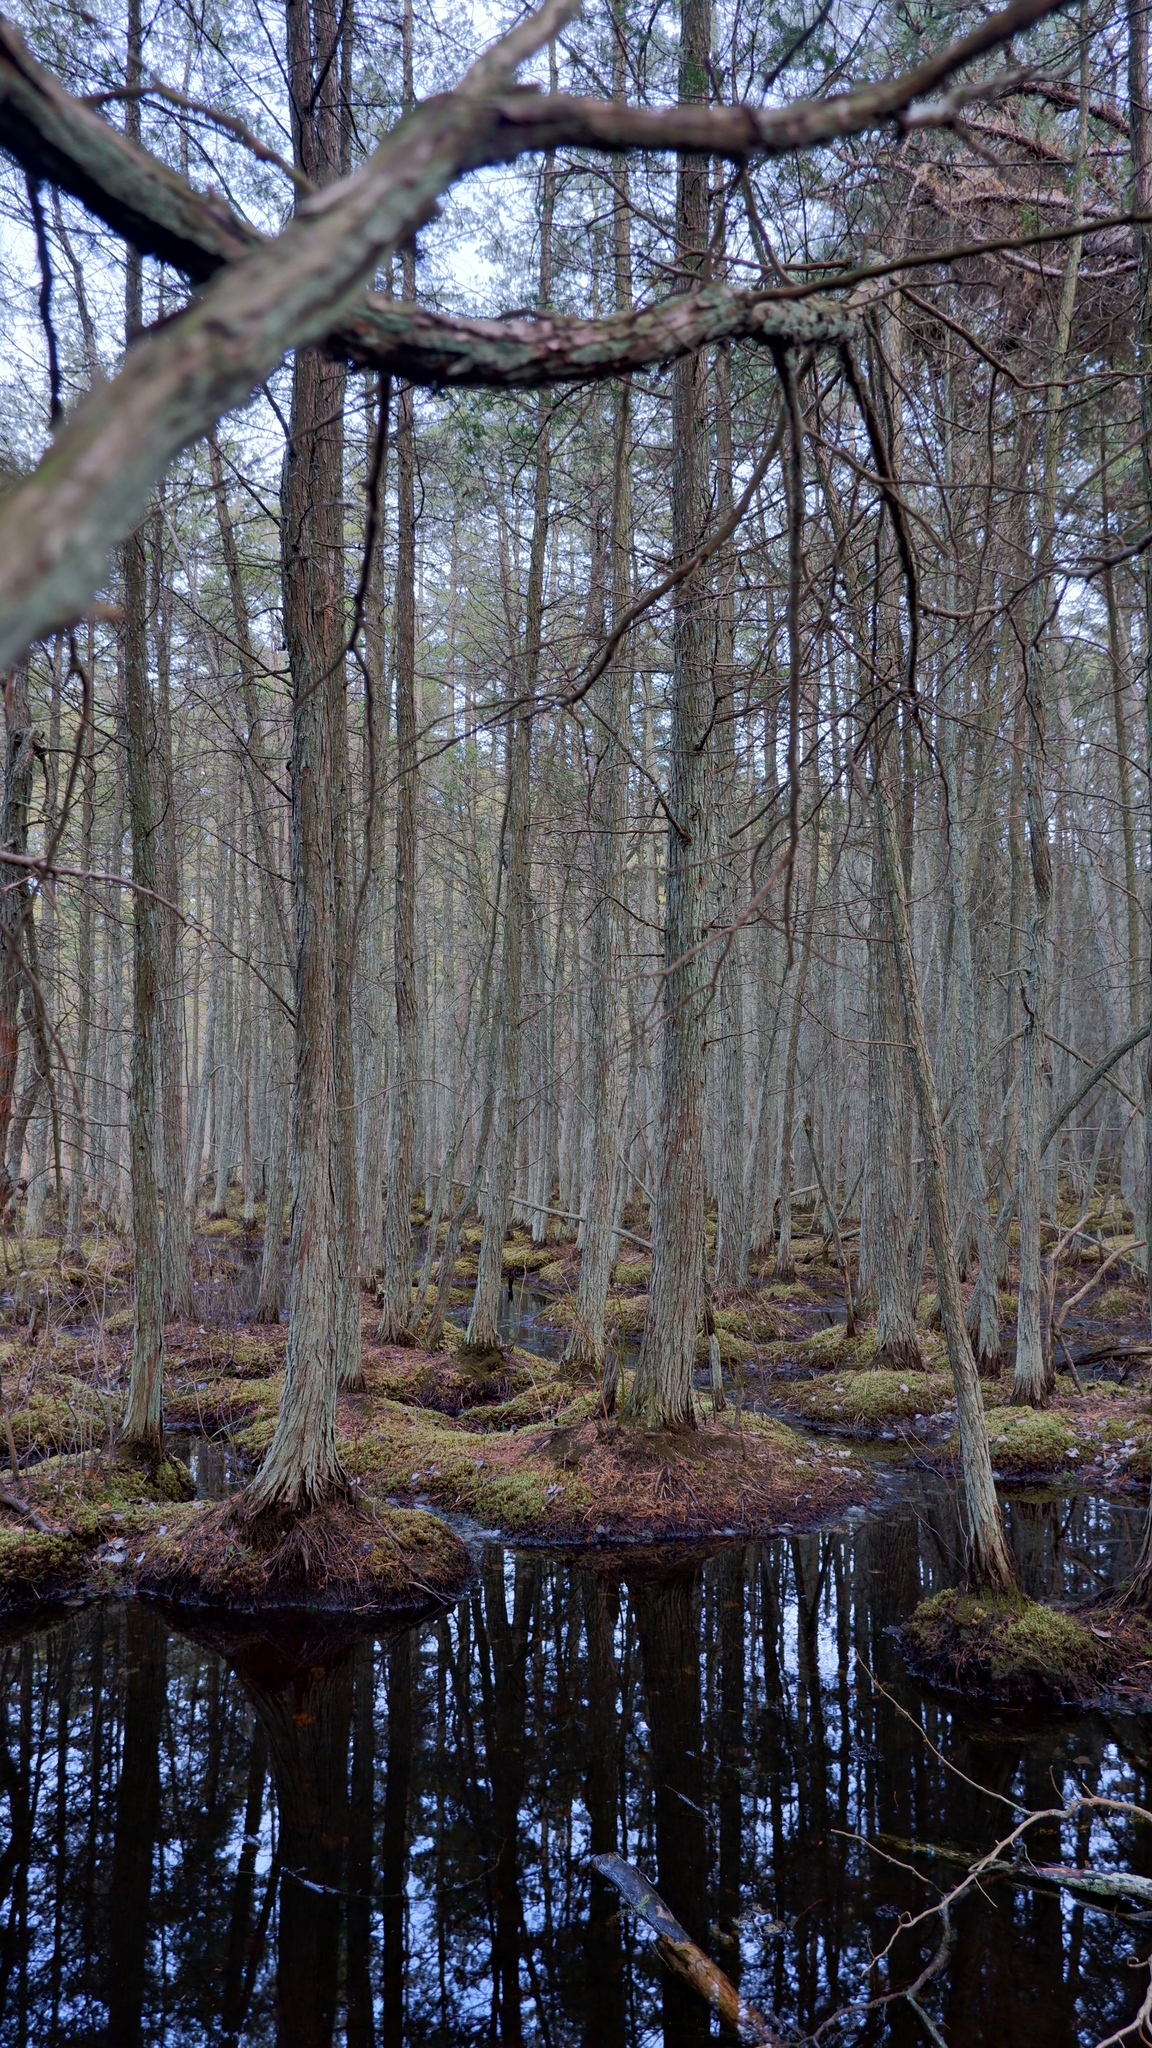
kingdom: Plantae
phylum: Tracheophyta
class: Pinopsida
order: Pinales
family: Cupressaceae
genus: Chamaecyparis
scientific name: Chamaecyparis thyoides
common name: Atlantic white cedar
